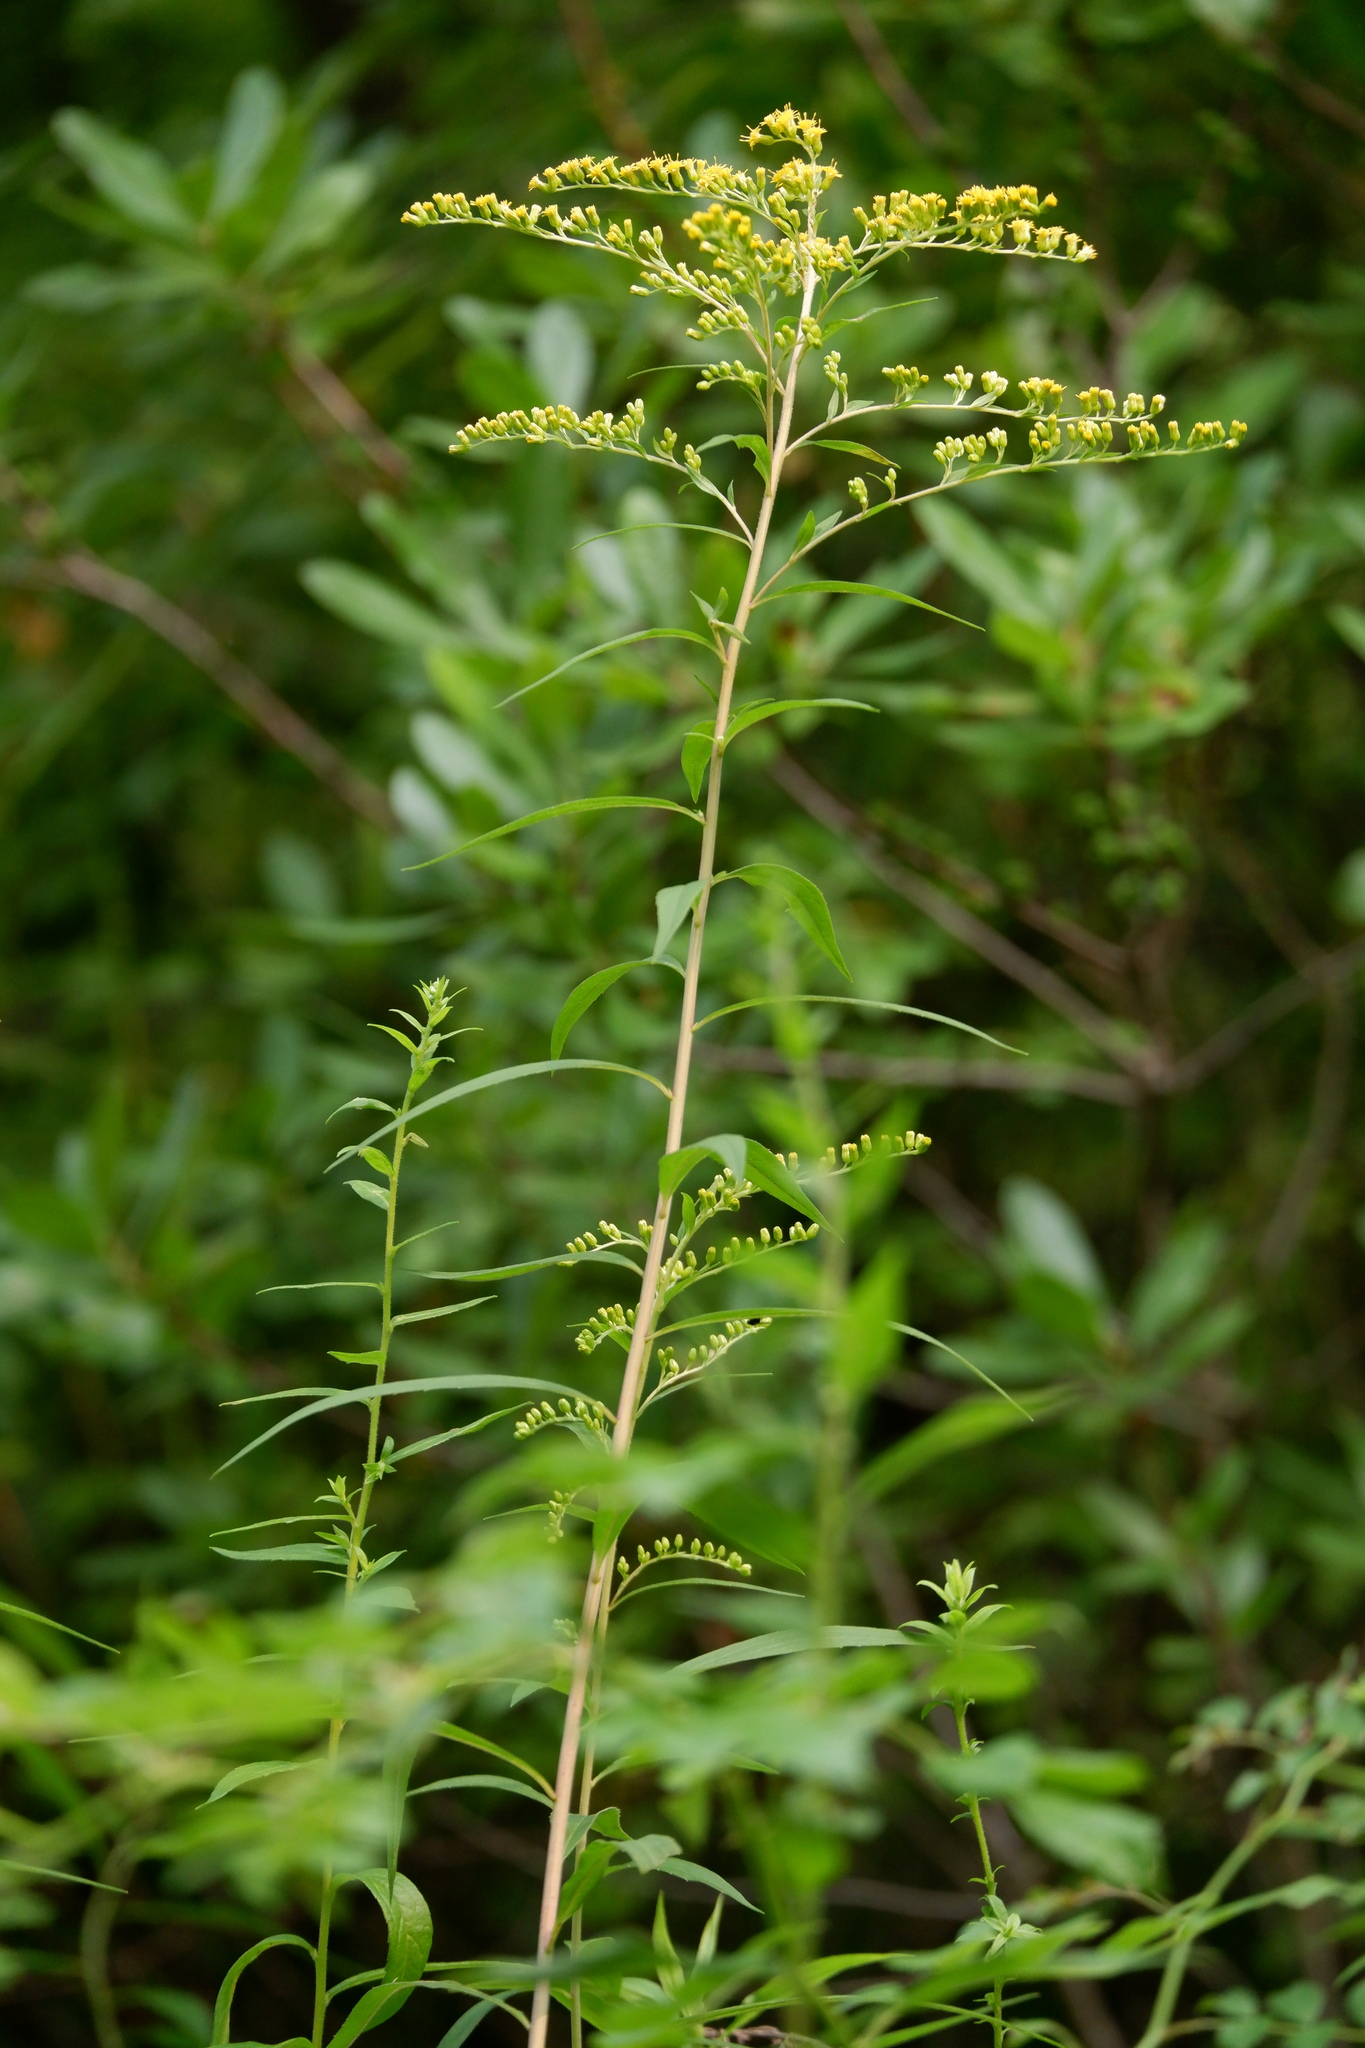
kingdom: Plantae
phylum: Tracheophyta
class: Magnoliopsida
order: Asterales
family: Asteraceae
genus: Solidago
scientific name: Solidago gigantea
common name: Giant goldenrod
